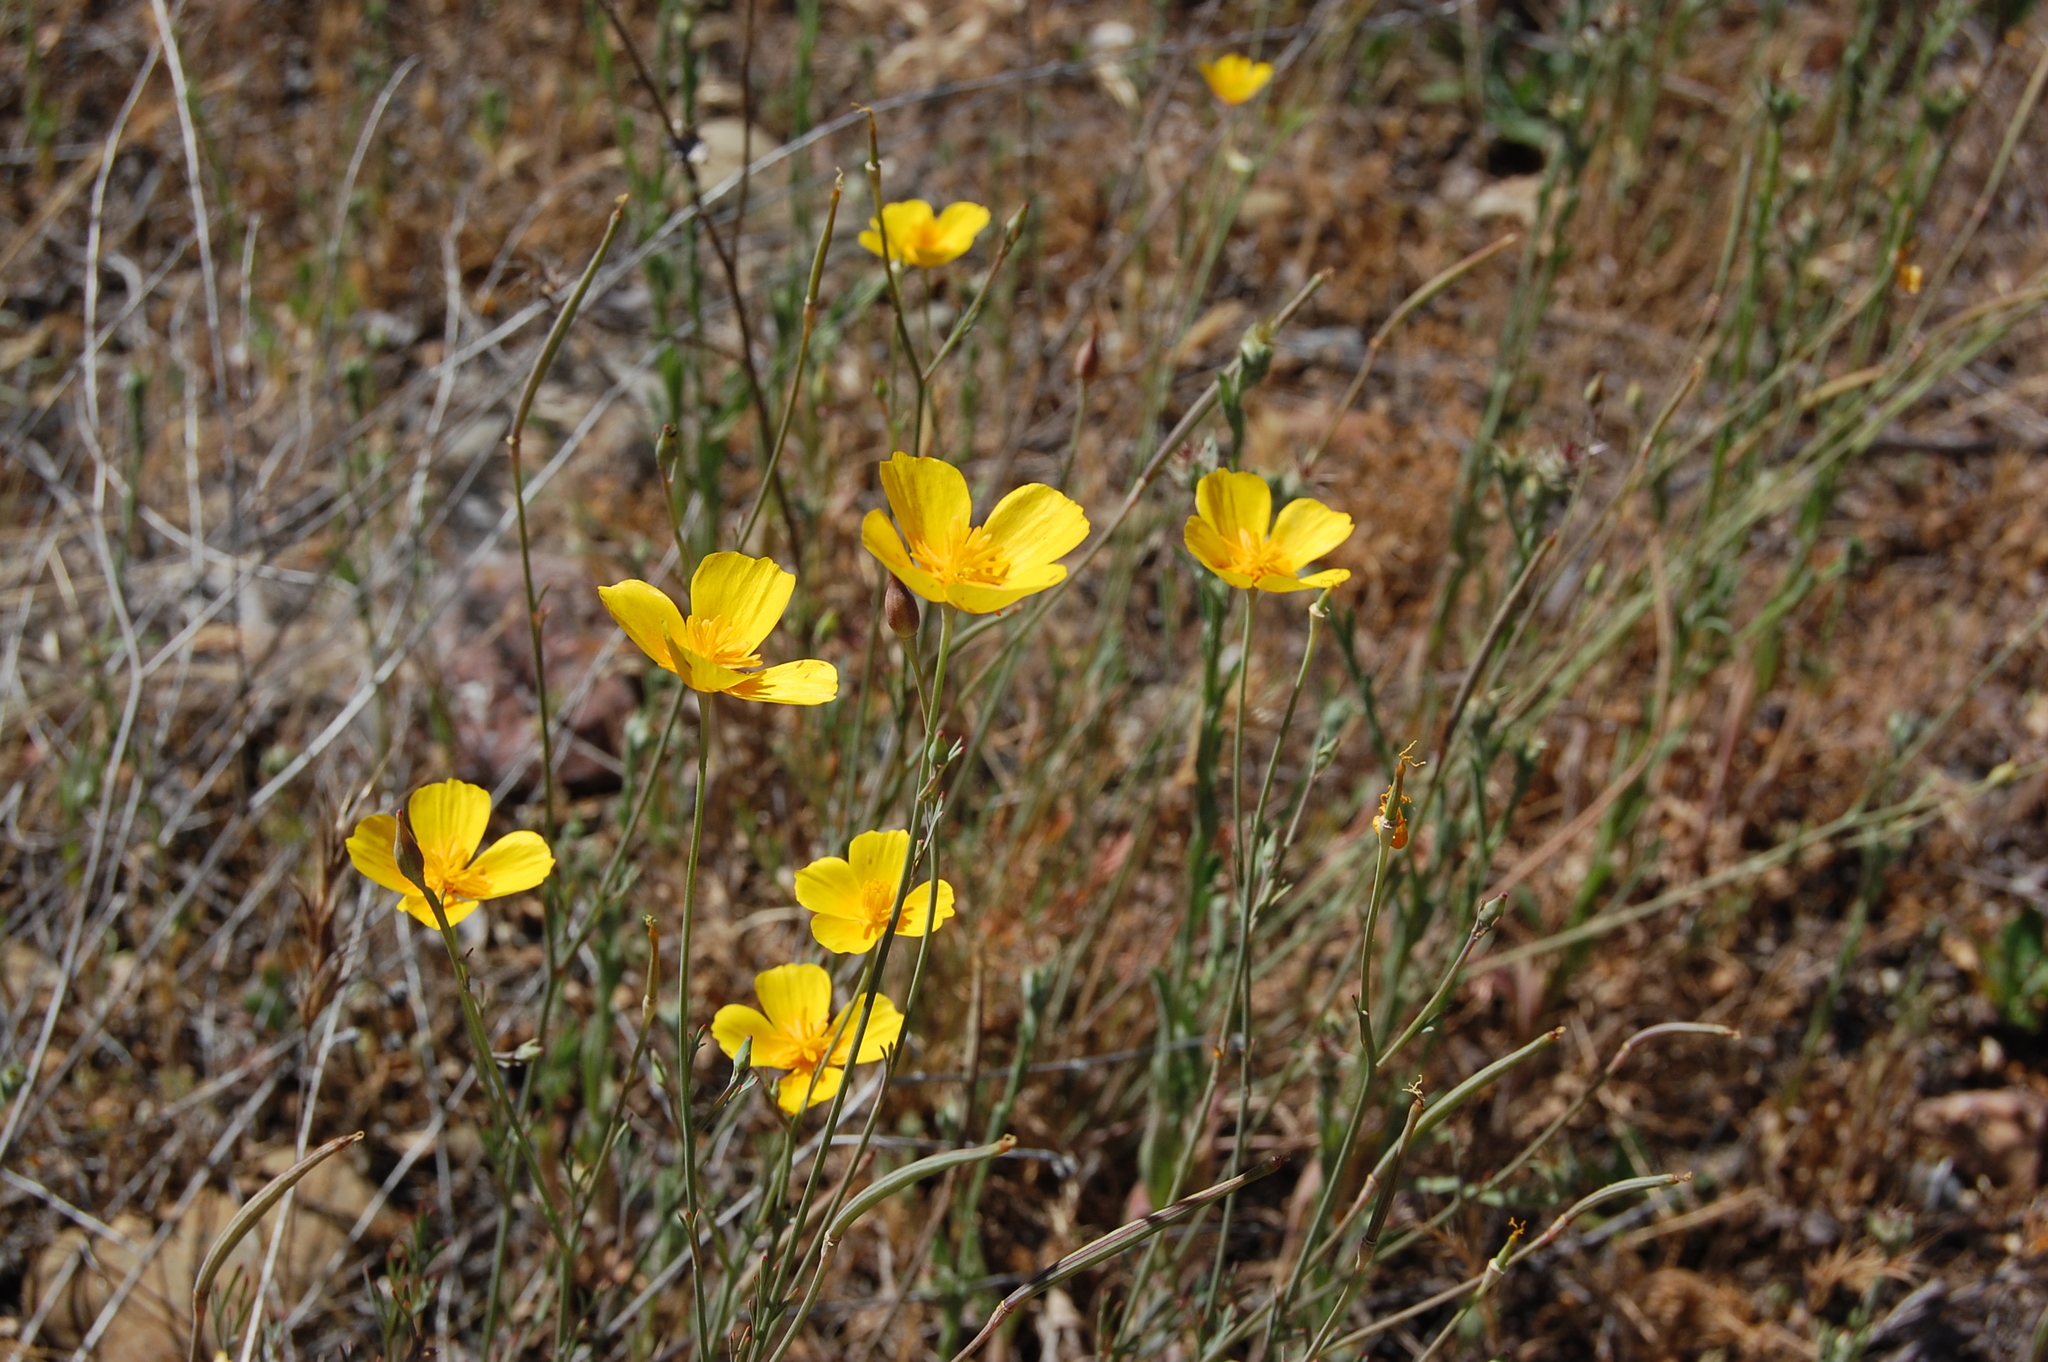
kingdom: Plantae
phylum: Tracheophyta
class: Magnoliopsida
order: Ranunculales
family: Papaveraceae
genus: Eschscholzia
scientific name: Eschscholzia caespitosa
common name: Tufted california-poppy
